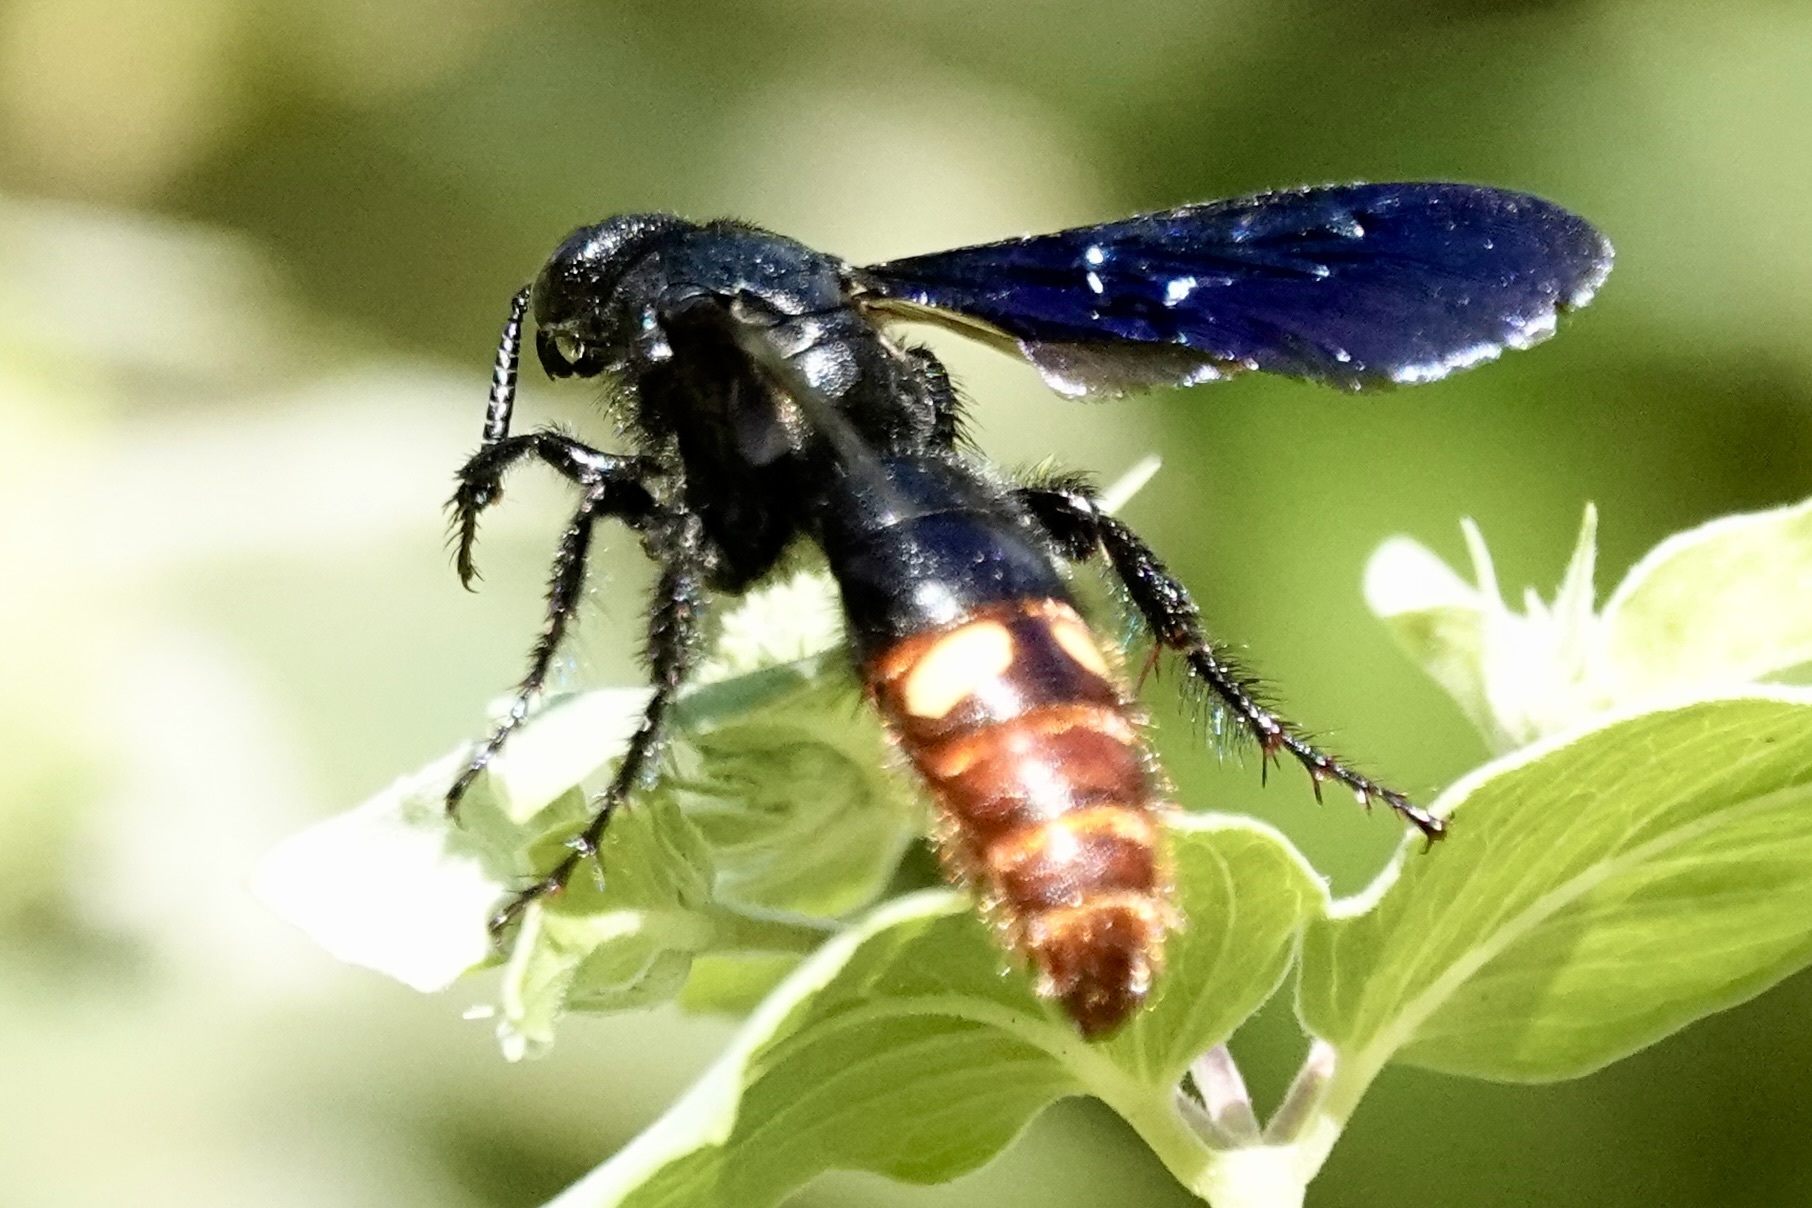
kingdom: Animalia
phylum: Arthropoda
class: Insecta
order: Hymenoptera
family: Scoliidae
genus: Scolia
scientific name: Scolia dubia
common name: Blue-winged scoliid wasp
